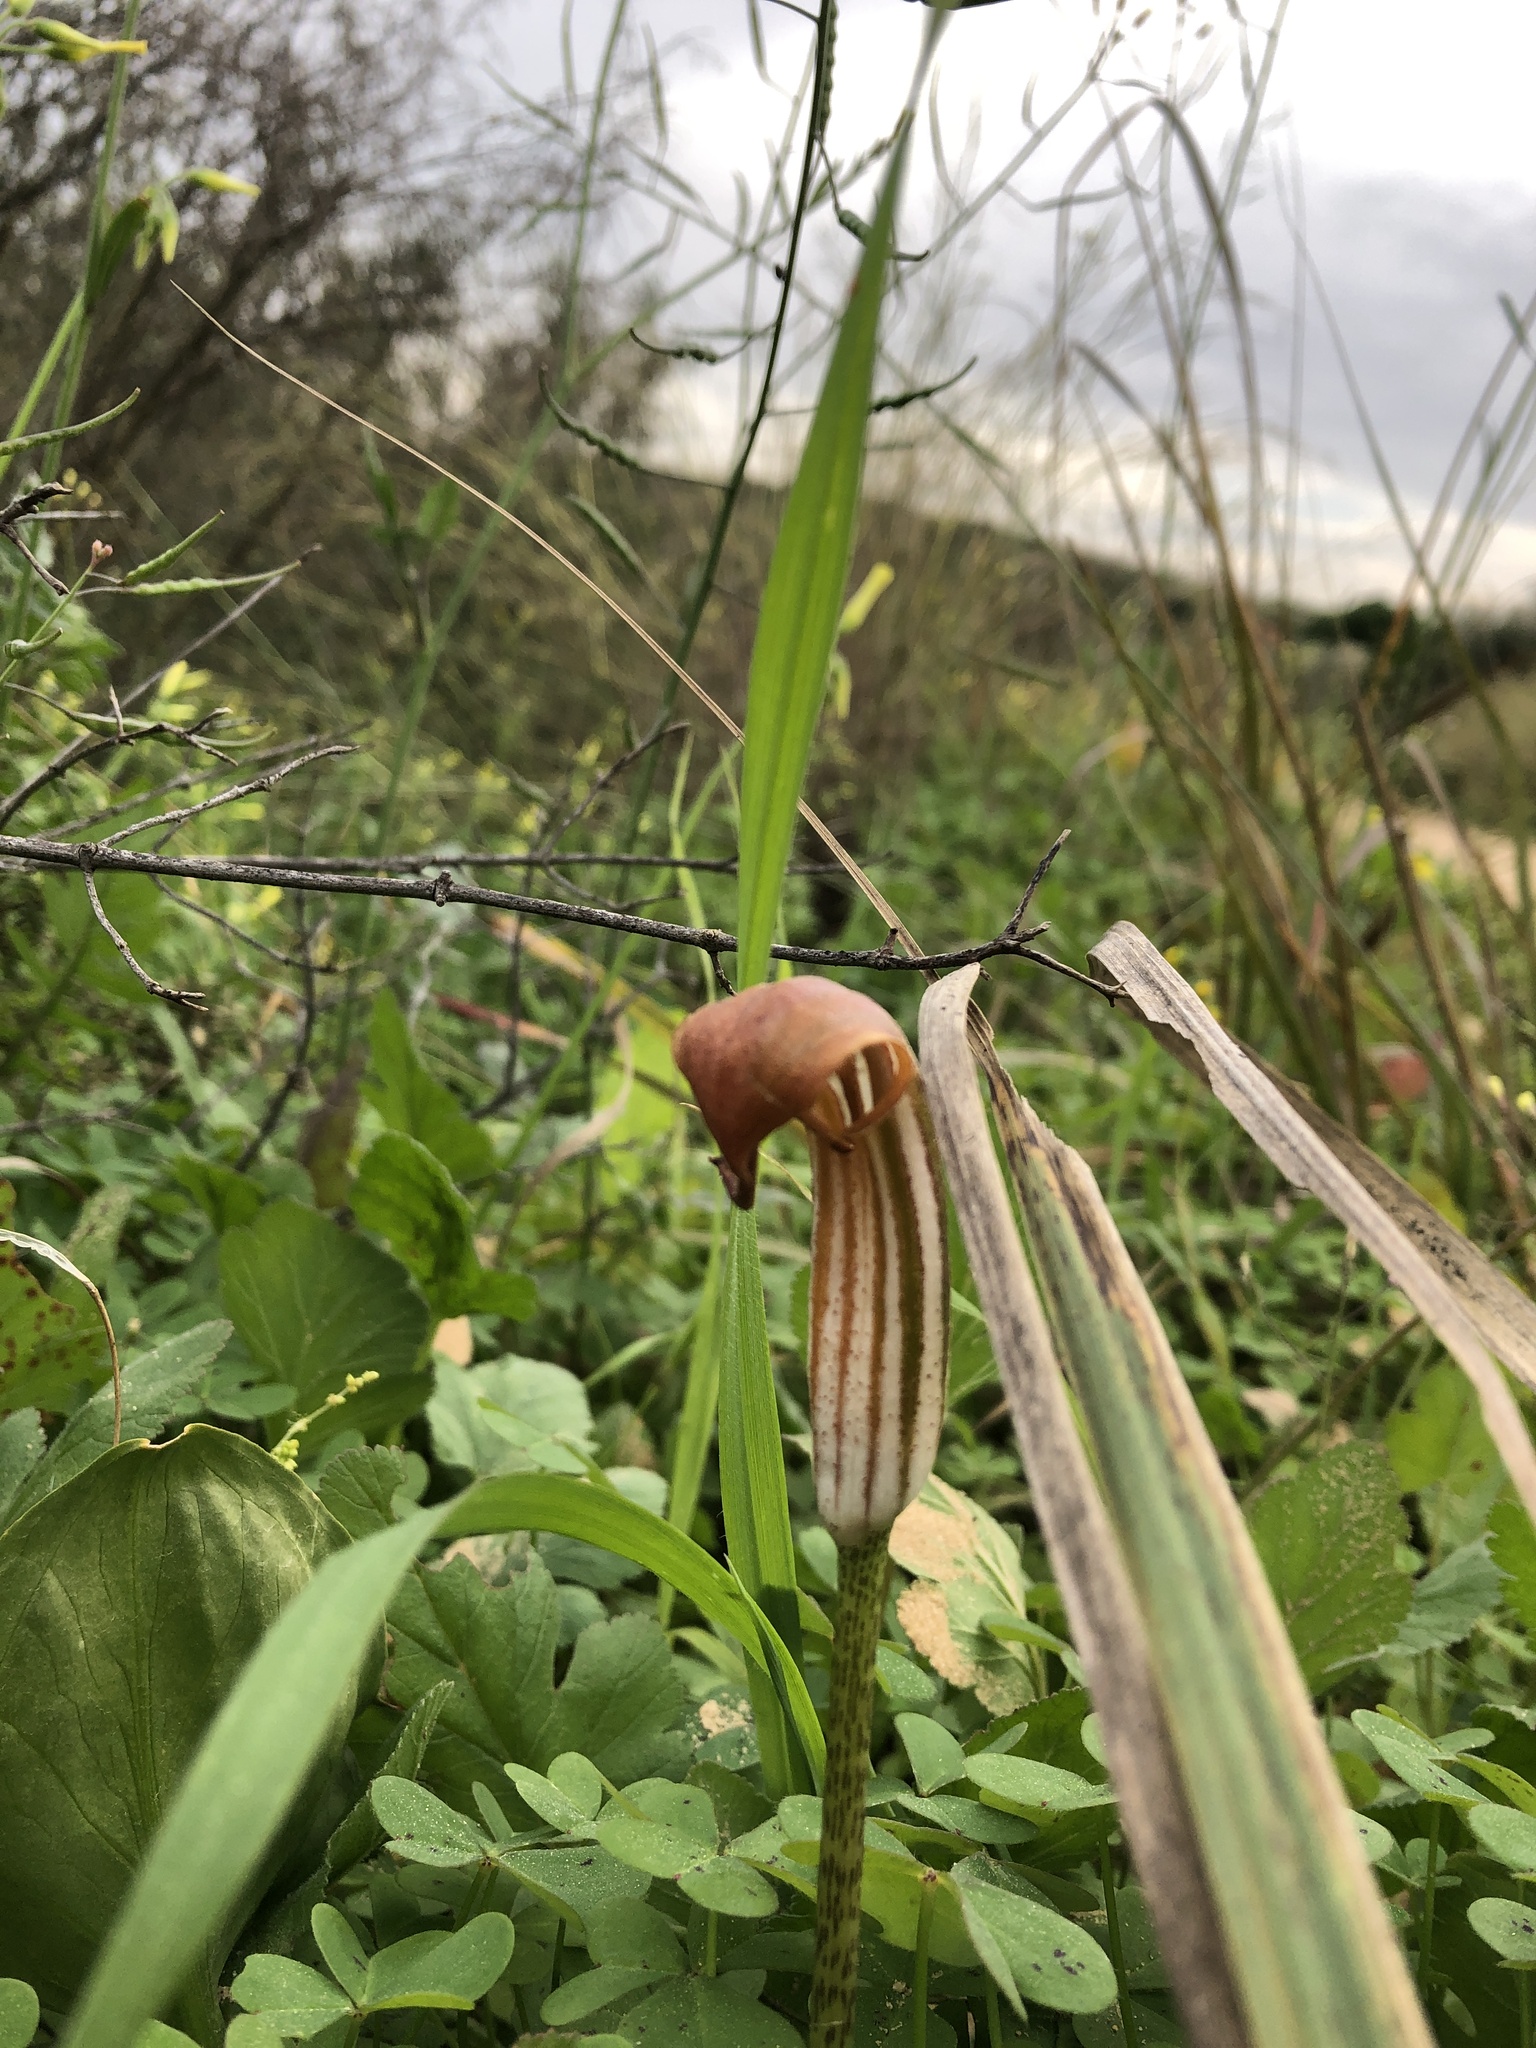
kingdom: Plantae
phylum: Tracheophyta
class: Liliopsida
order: Alismatales
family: Araceae
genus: Arisarum
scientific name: Arisarum vulgare
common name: Common arisarum
